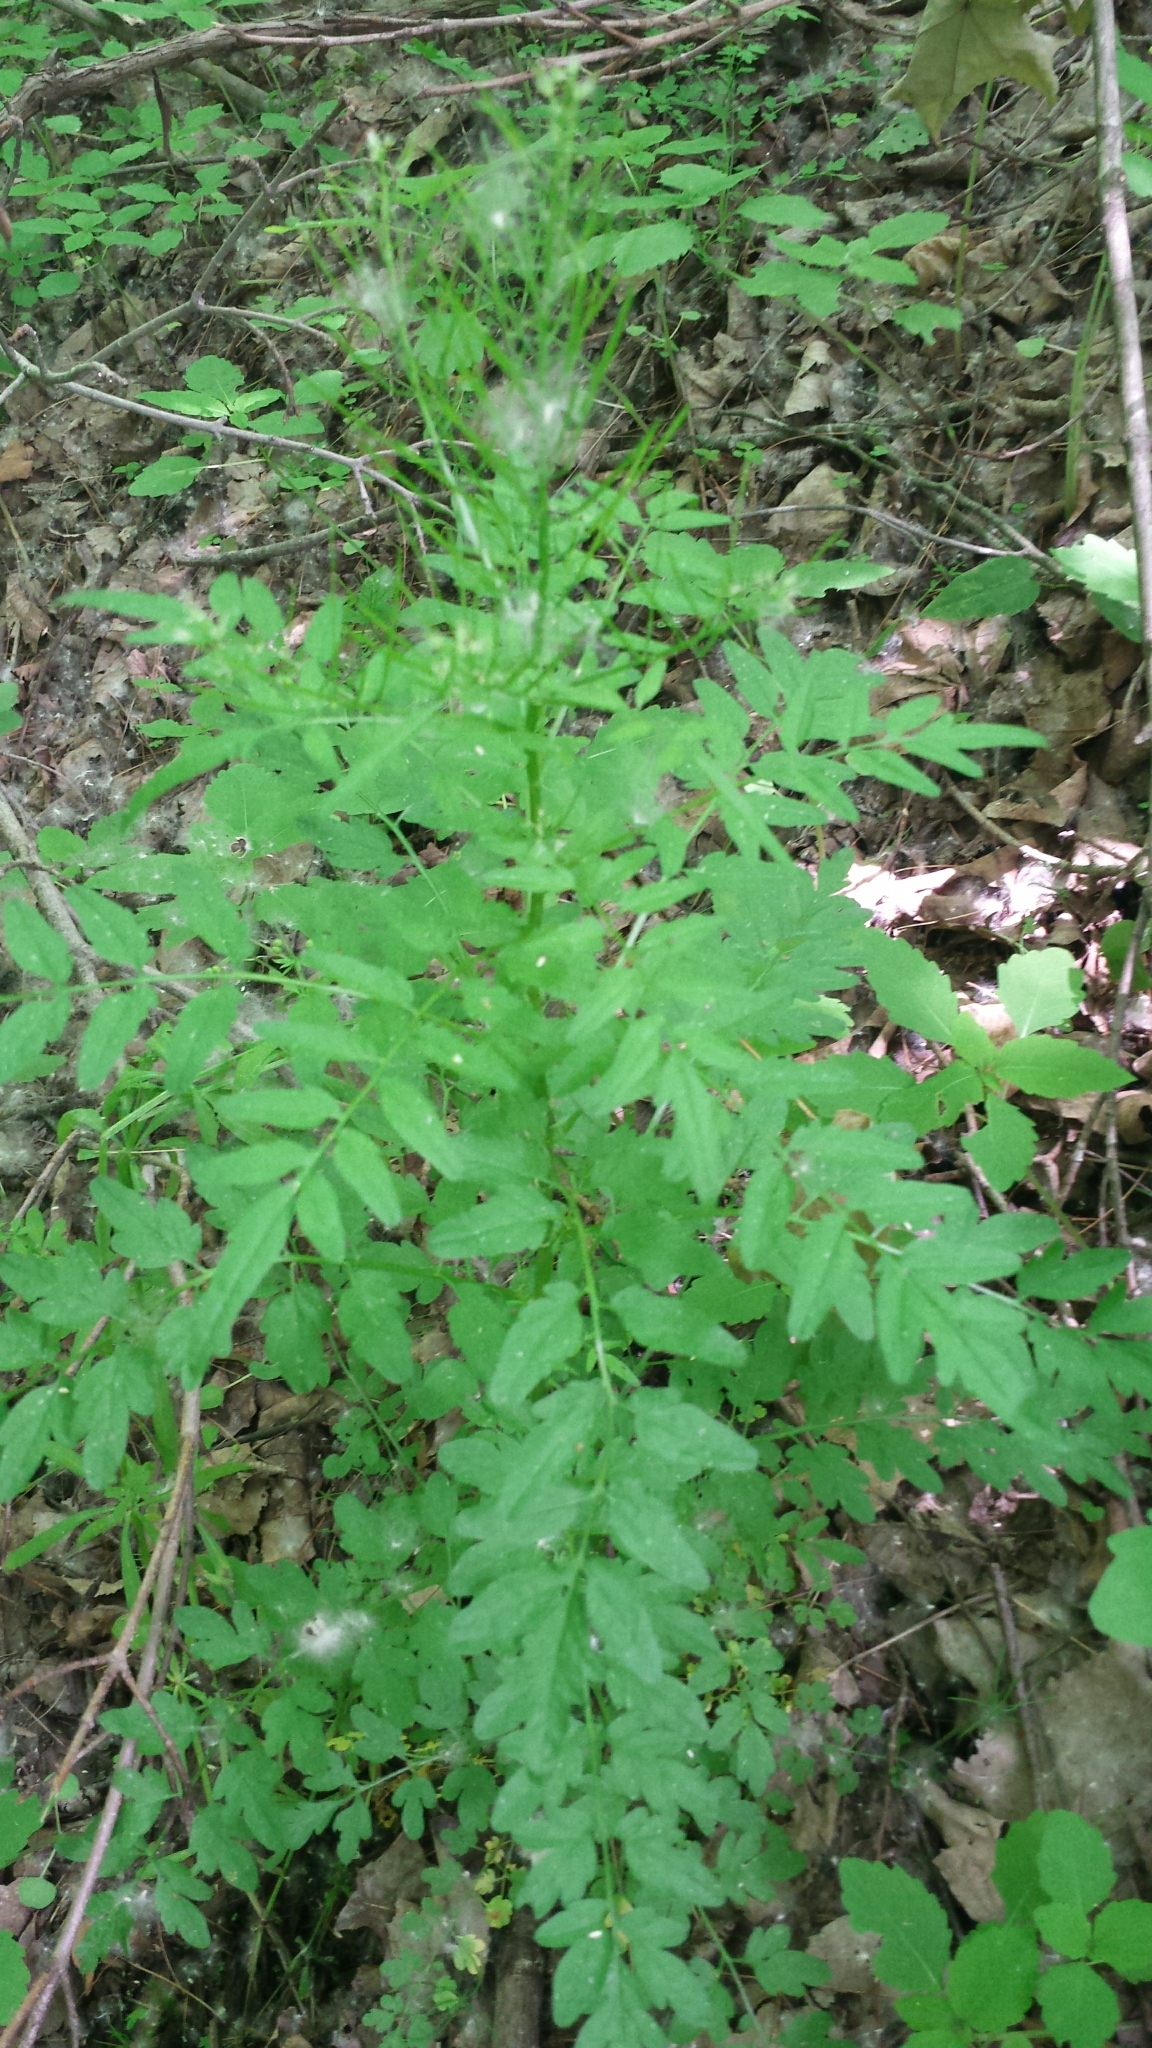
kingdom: Plantae
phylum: Tracheophyta
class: Magnoliopsida
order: Brassicales
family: Brassicaceae
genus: Cardamine
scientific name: Cardamine impatiens
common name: Narrow-leaved bitter-cress
